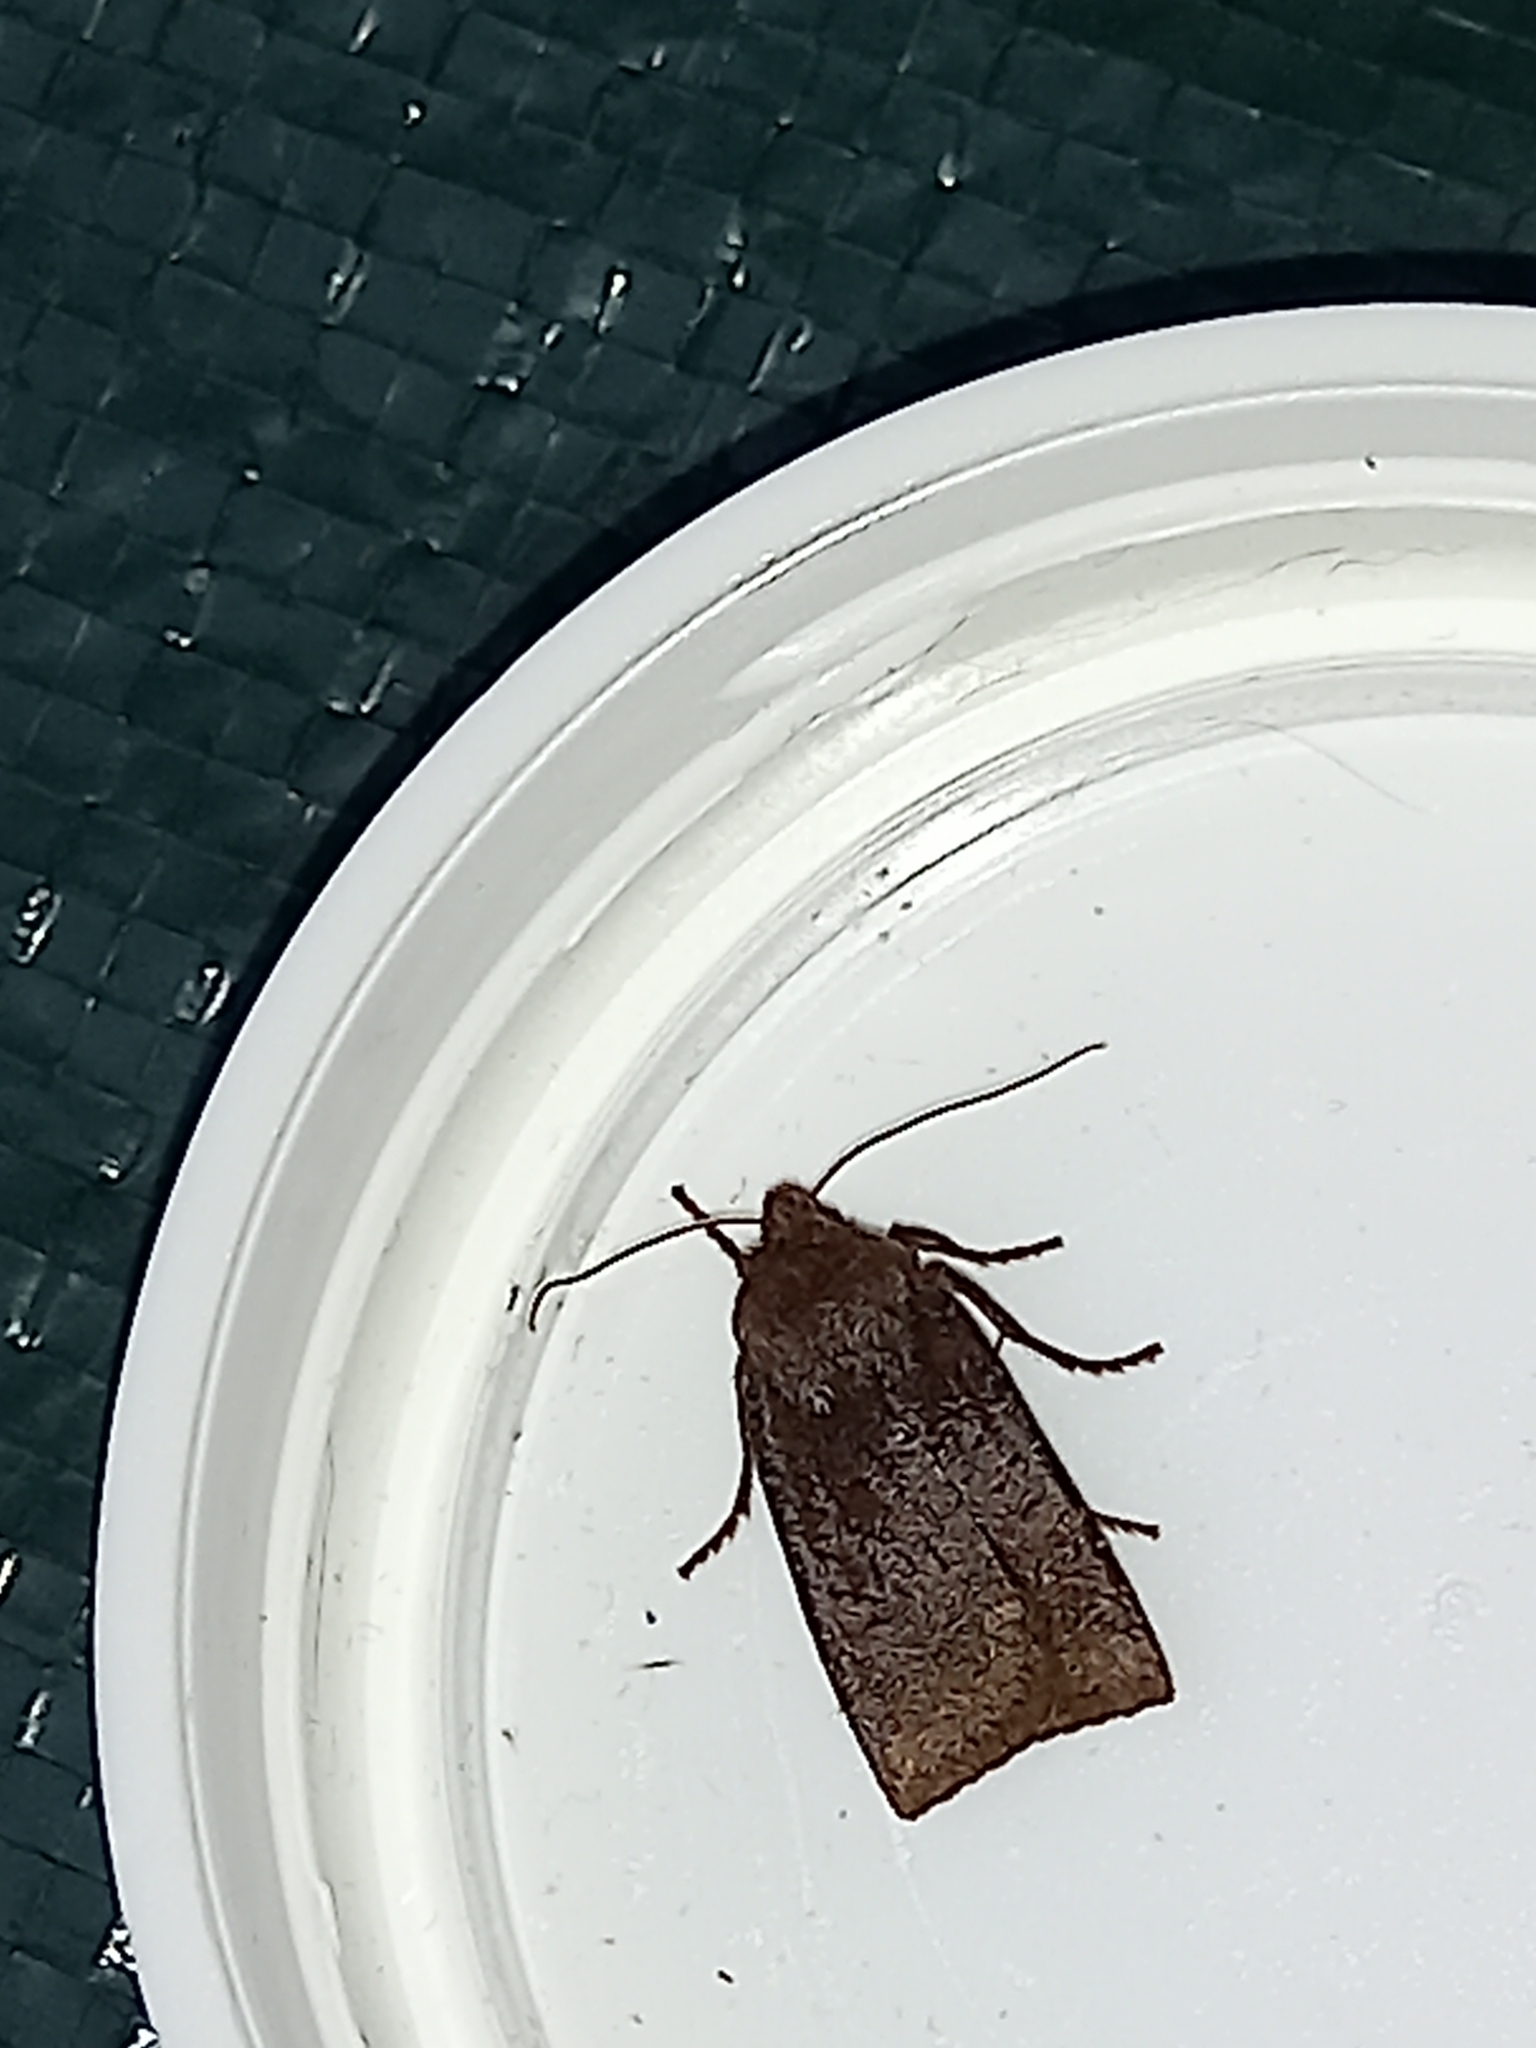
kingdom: Animalia
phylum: Arthropoda
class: Insecta
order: Lepidoptera
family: Noctuidae
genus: Conistra
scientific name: Conistra ligula
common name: Dark chestnut
